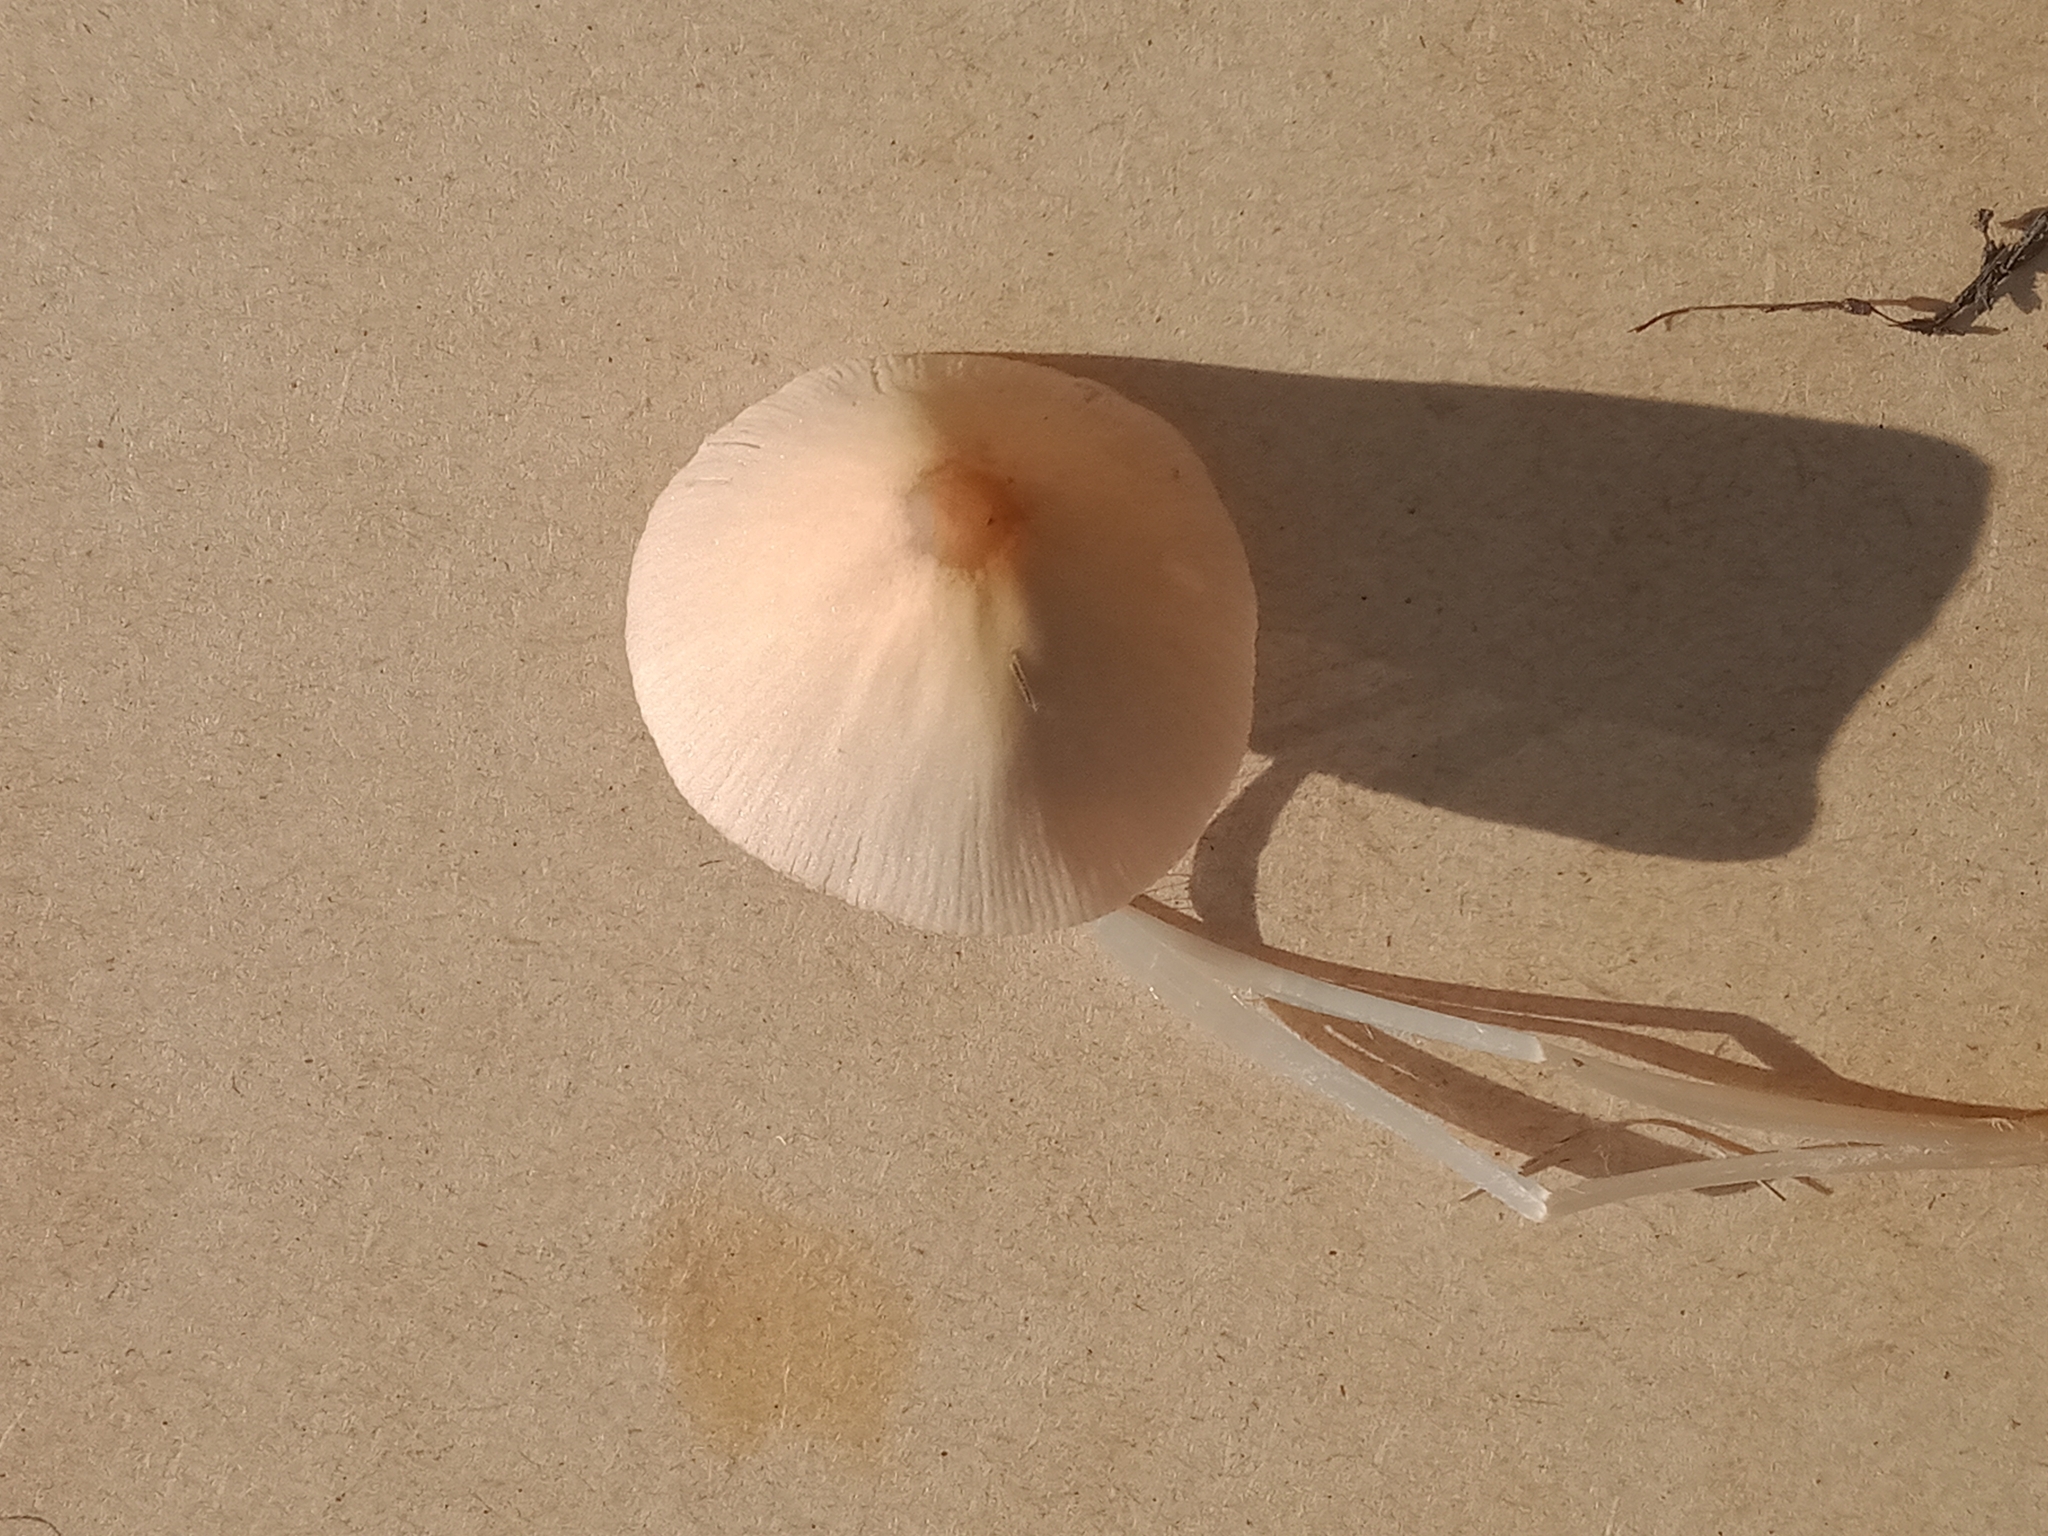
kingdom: Fungi
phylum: Basidiomycota
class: Agaricomycetes
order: Agaricales
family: Bolbitiaceae
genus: Conocybe
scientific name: Conocybe apala
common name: Milky conecap
